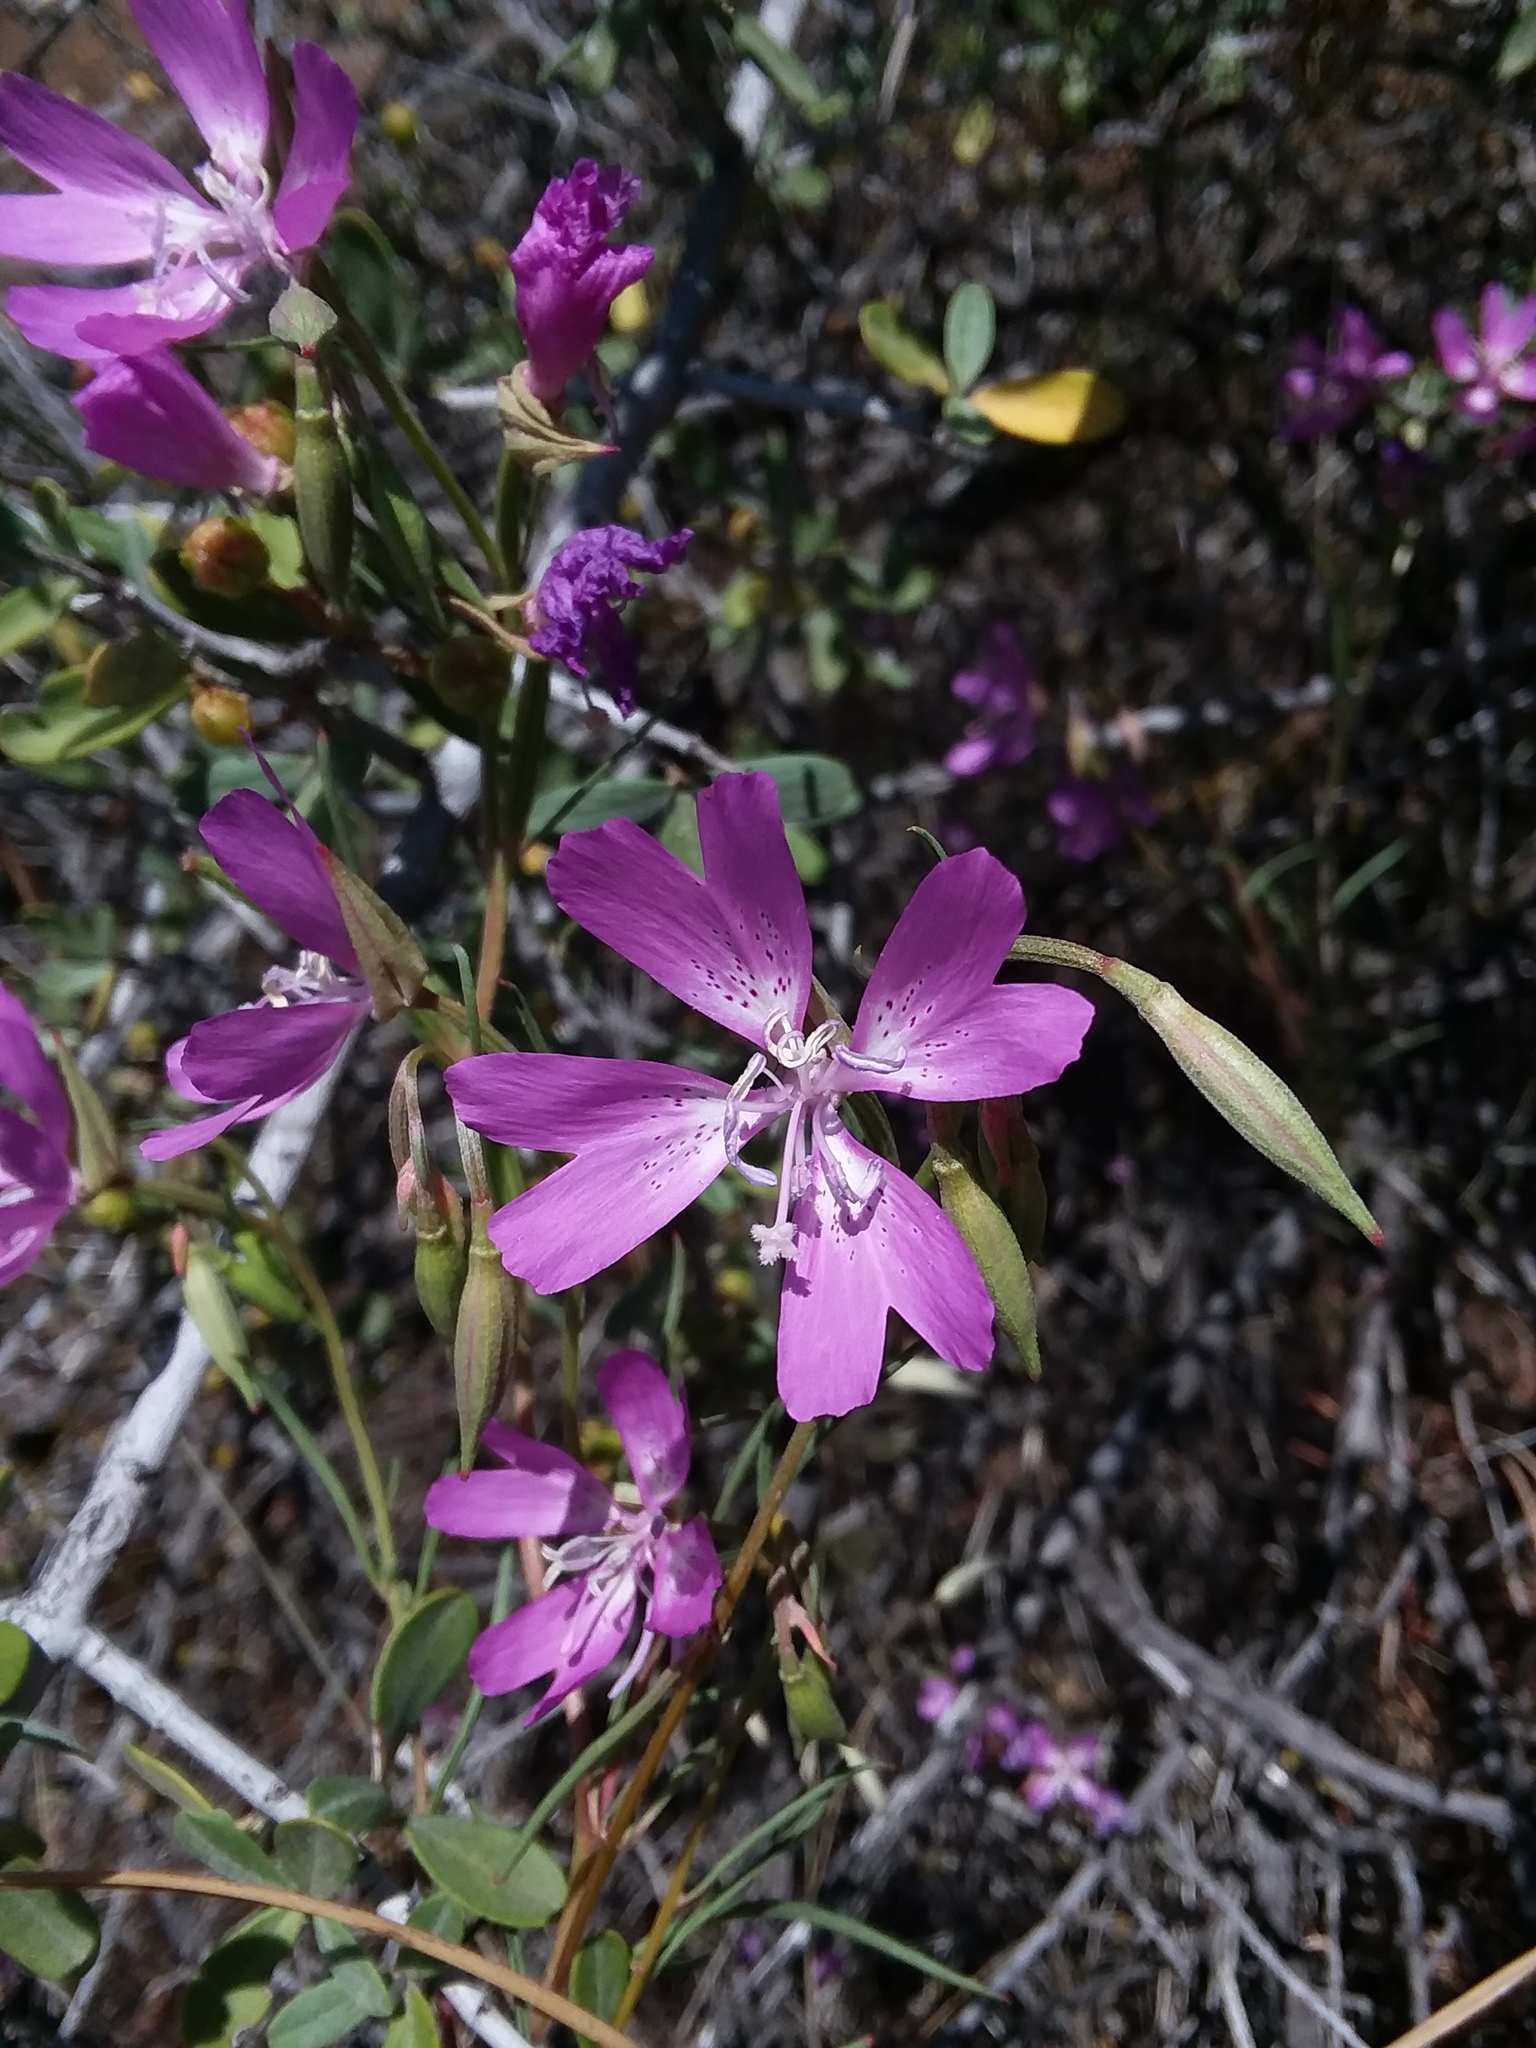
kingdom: Plantae
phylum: Tracheophyta
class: Magnoliopsida
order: Myrtales
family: Onagraceae
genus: Clarkia
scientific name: Clarkia biloba
